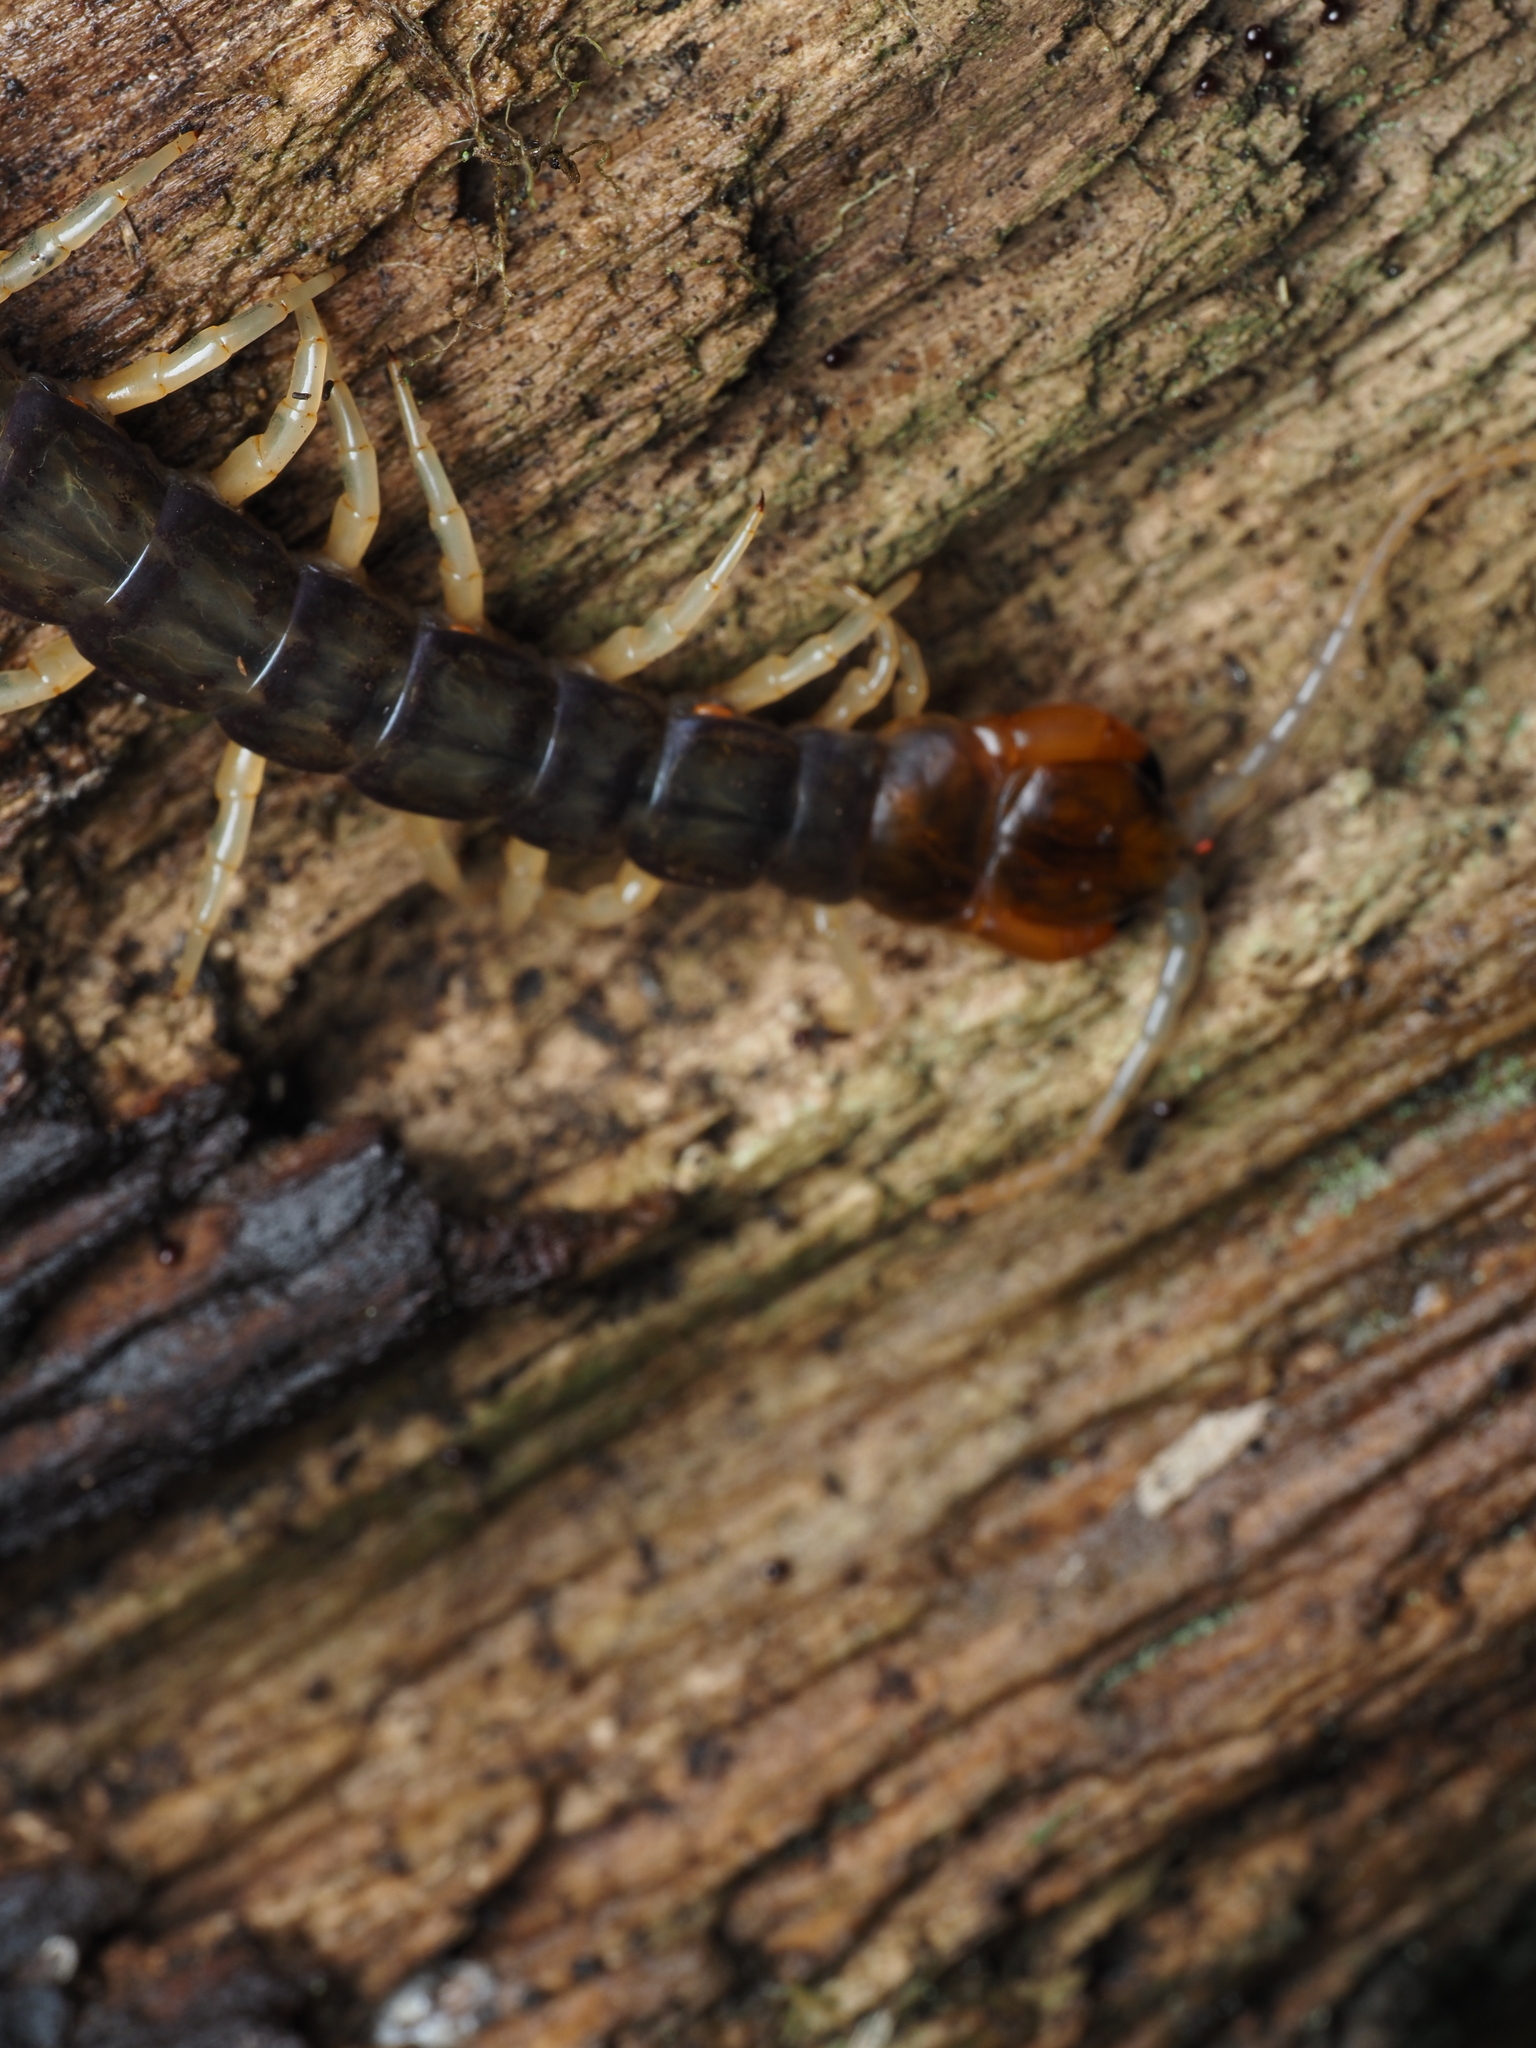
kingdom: Animalia
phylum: Arthropoda
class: Chilopoda
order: Scolopendromorpha
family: Scolopendridae
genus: Cormocephalus
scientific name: Cormocephalus rubriceps
